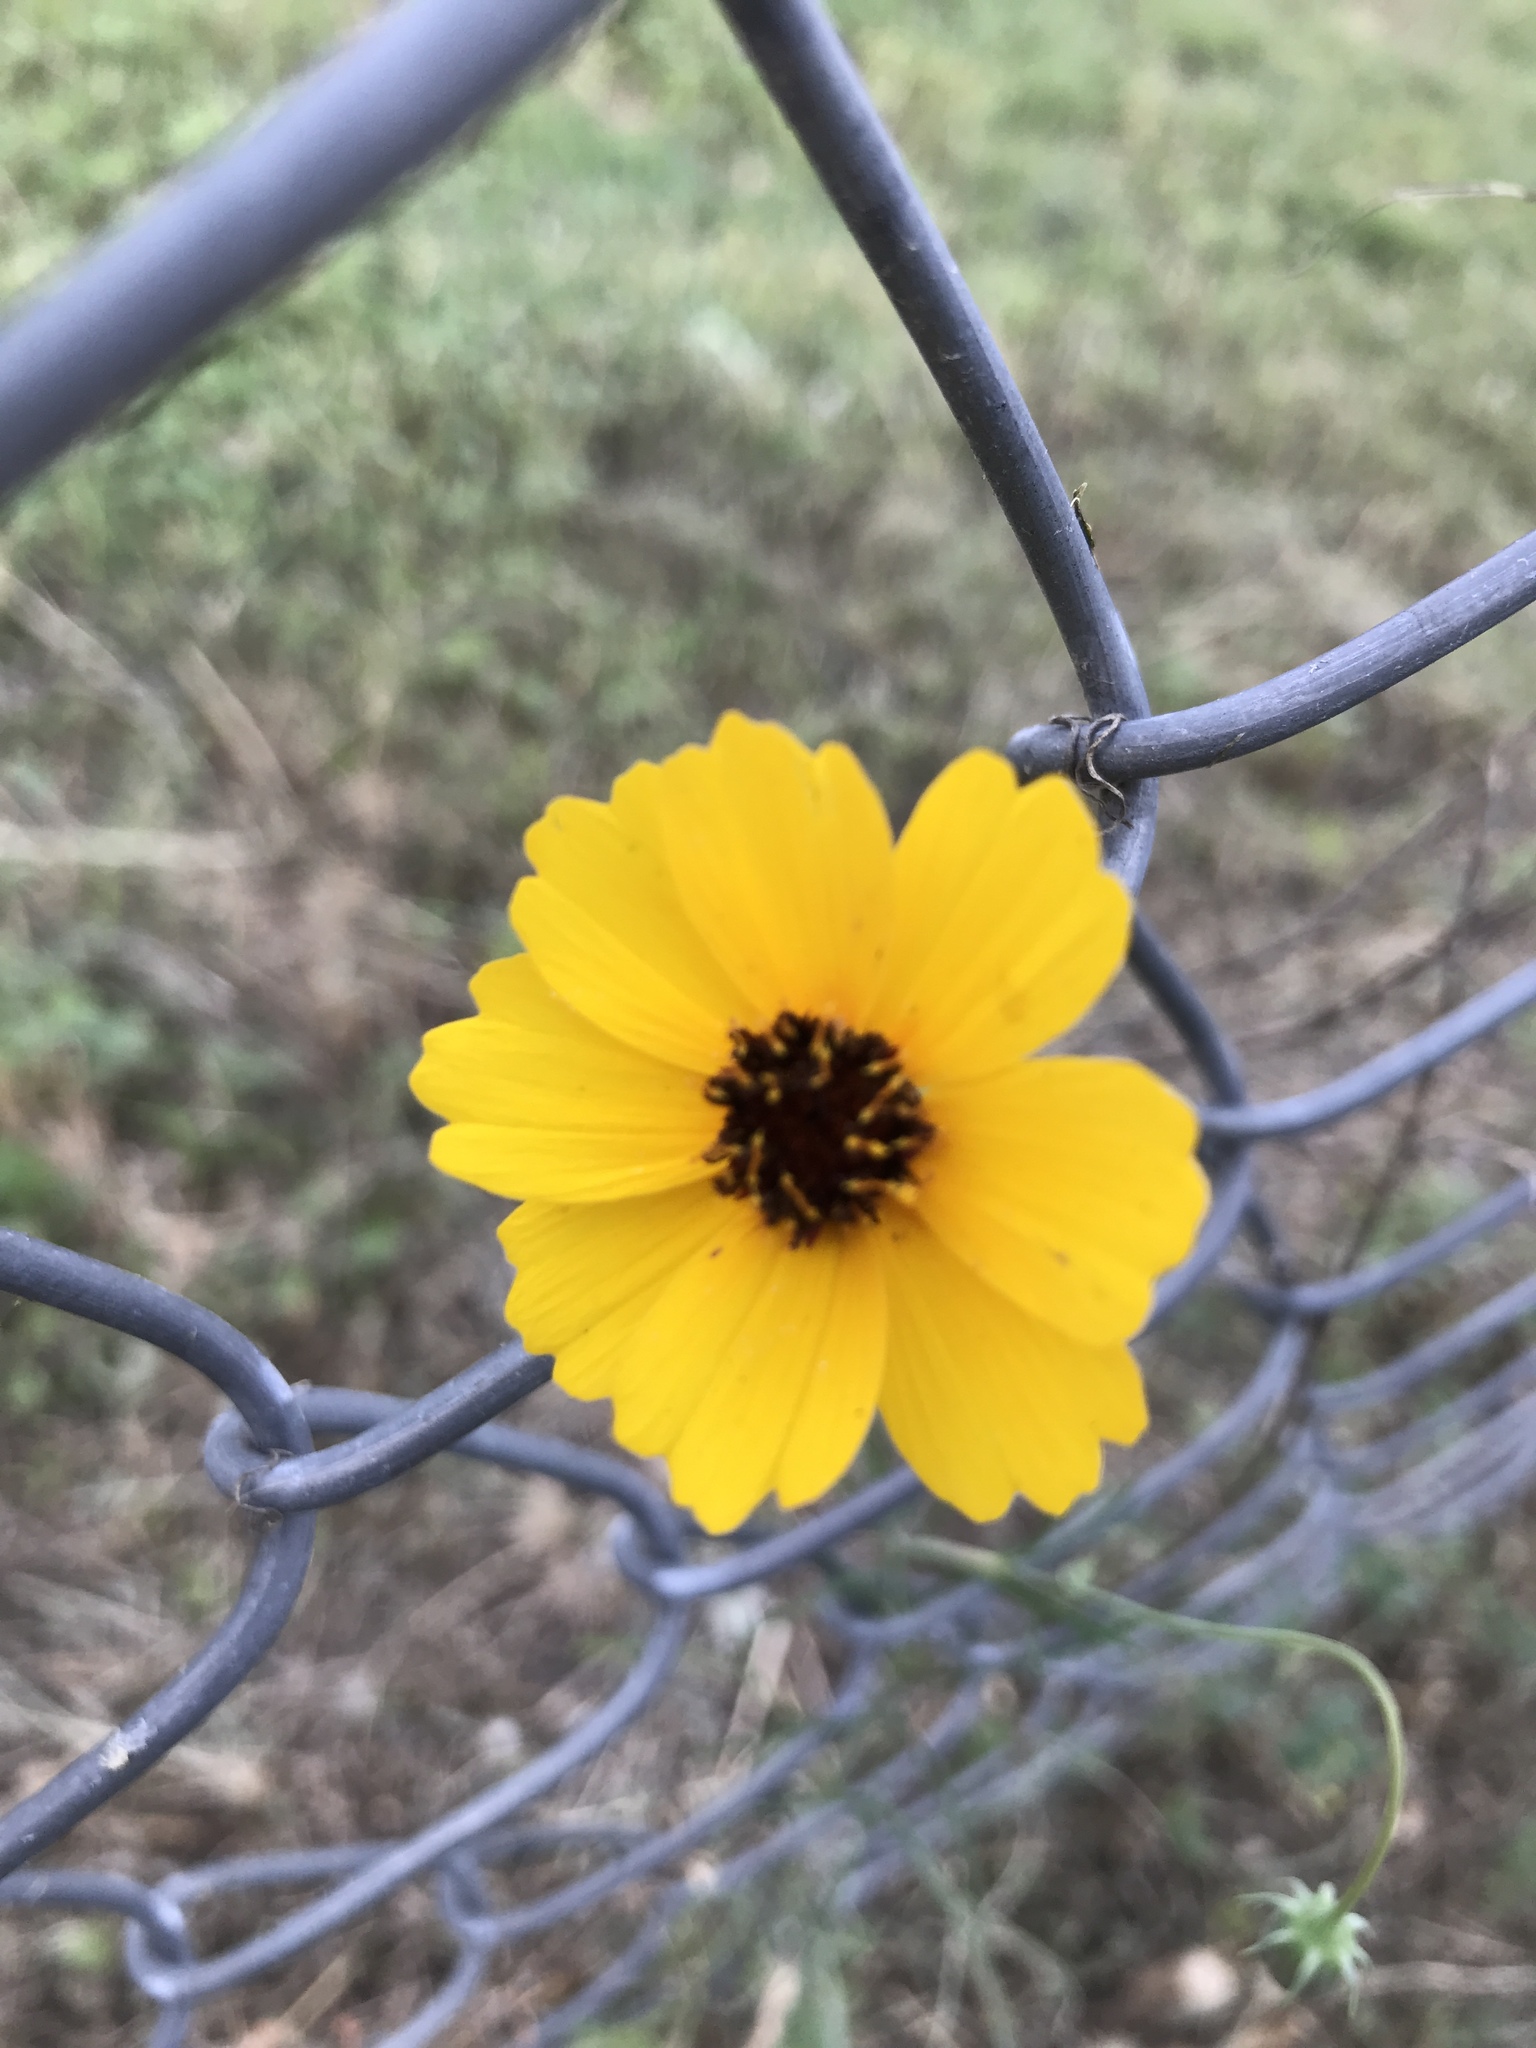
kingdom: Plantae
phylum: Tracheophyta
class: Magnoliopsida
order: Asterales
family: Asteraceae
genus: Thelesperma
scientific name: Thelesperma filifolium
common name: Stiff greenthread
